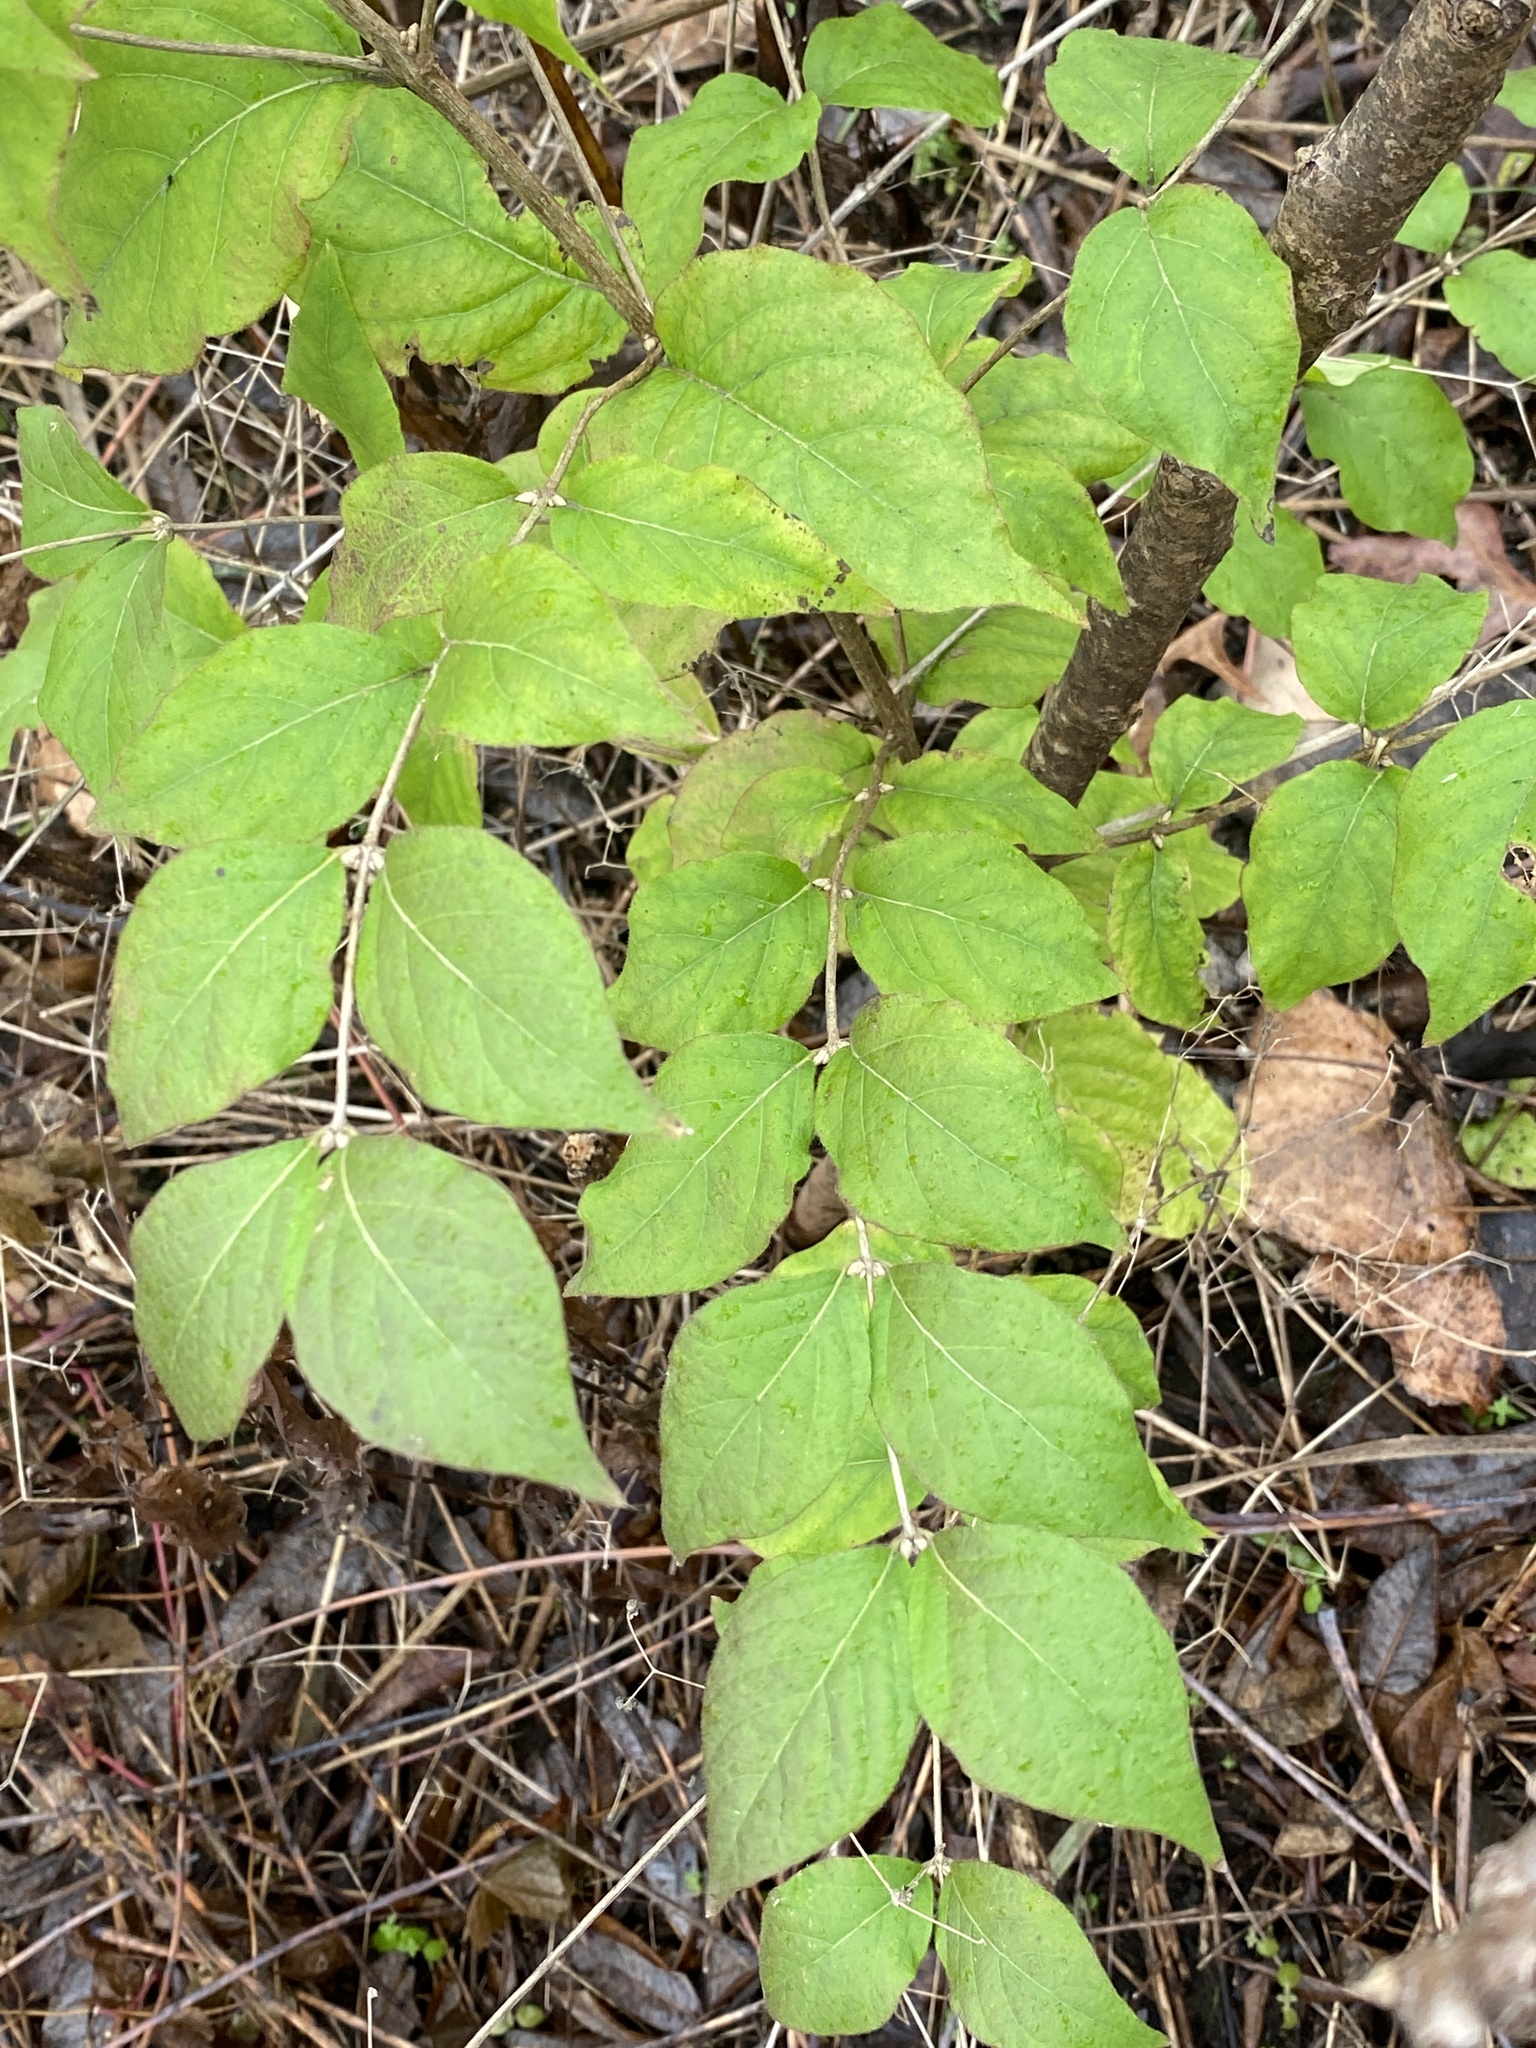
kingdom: Plantae
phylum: Tracheophyta
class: Magnoliopsida
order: Dipsacales
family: Caprifoliaceae
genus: Lonicera
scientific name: Lonicera maackii
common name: Amur honeysuckle
